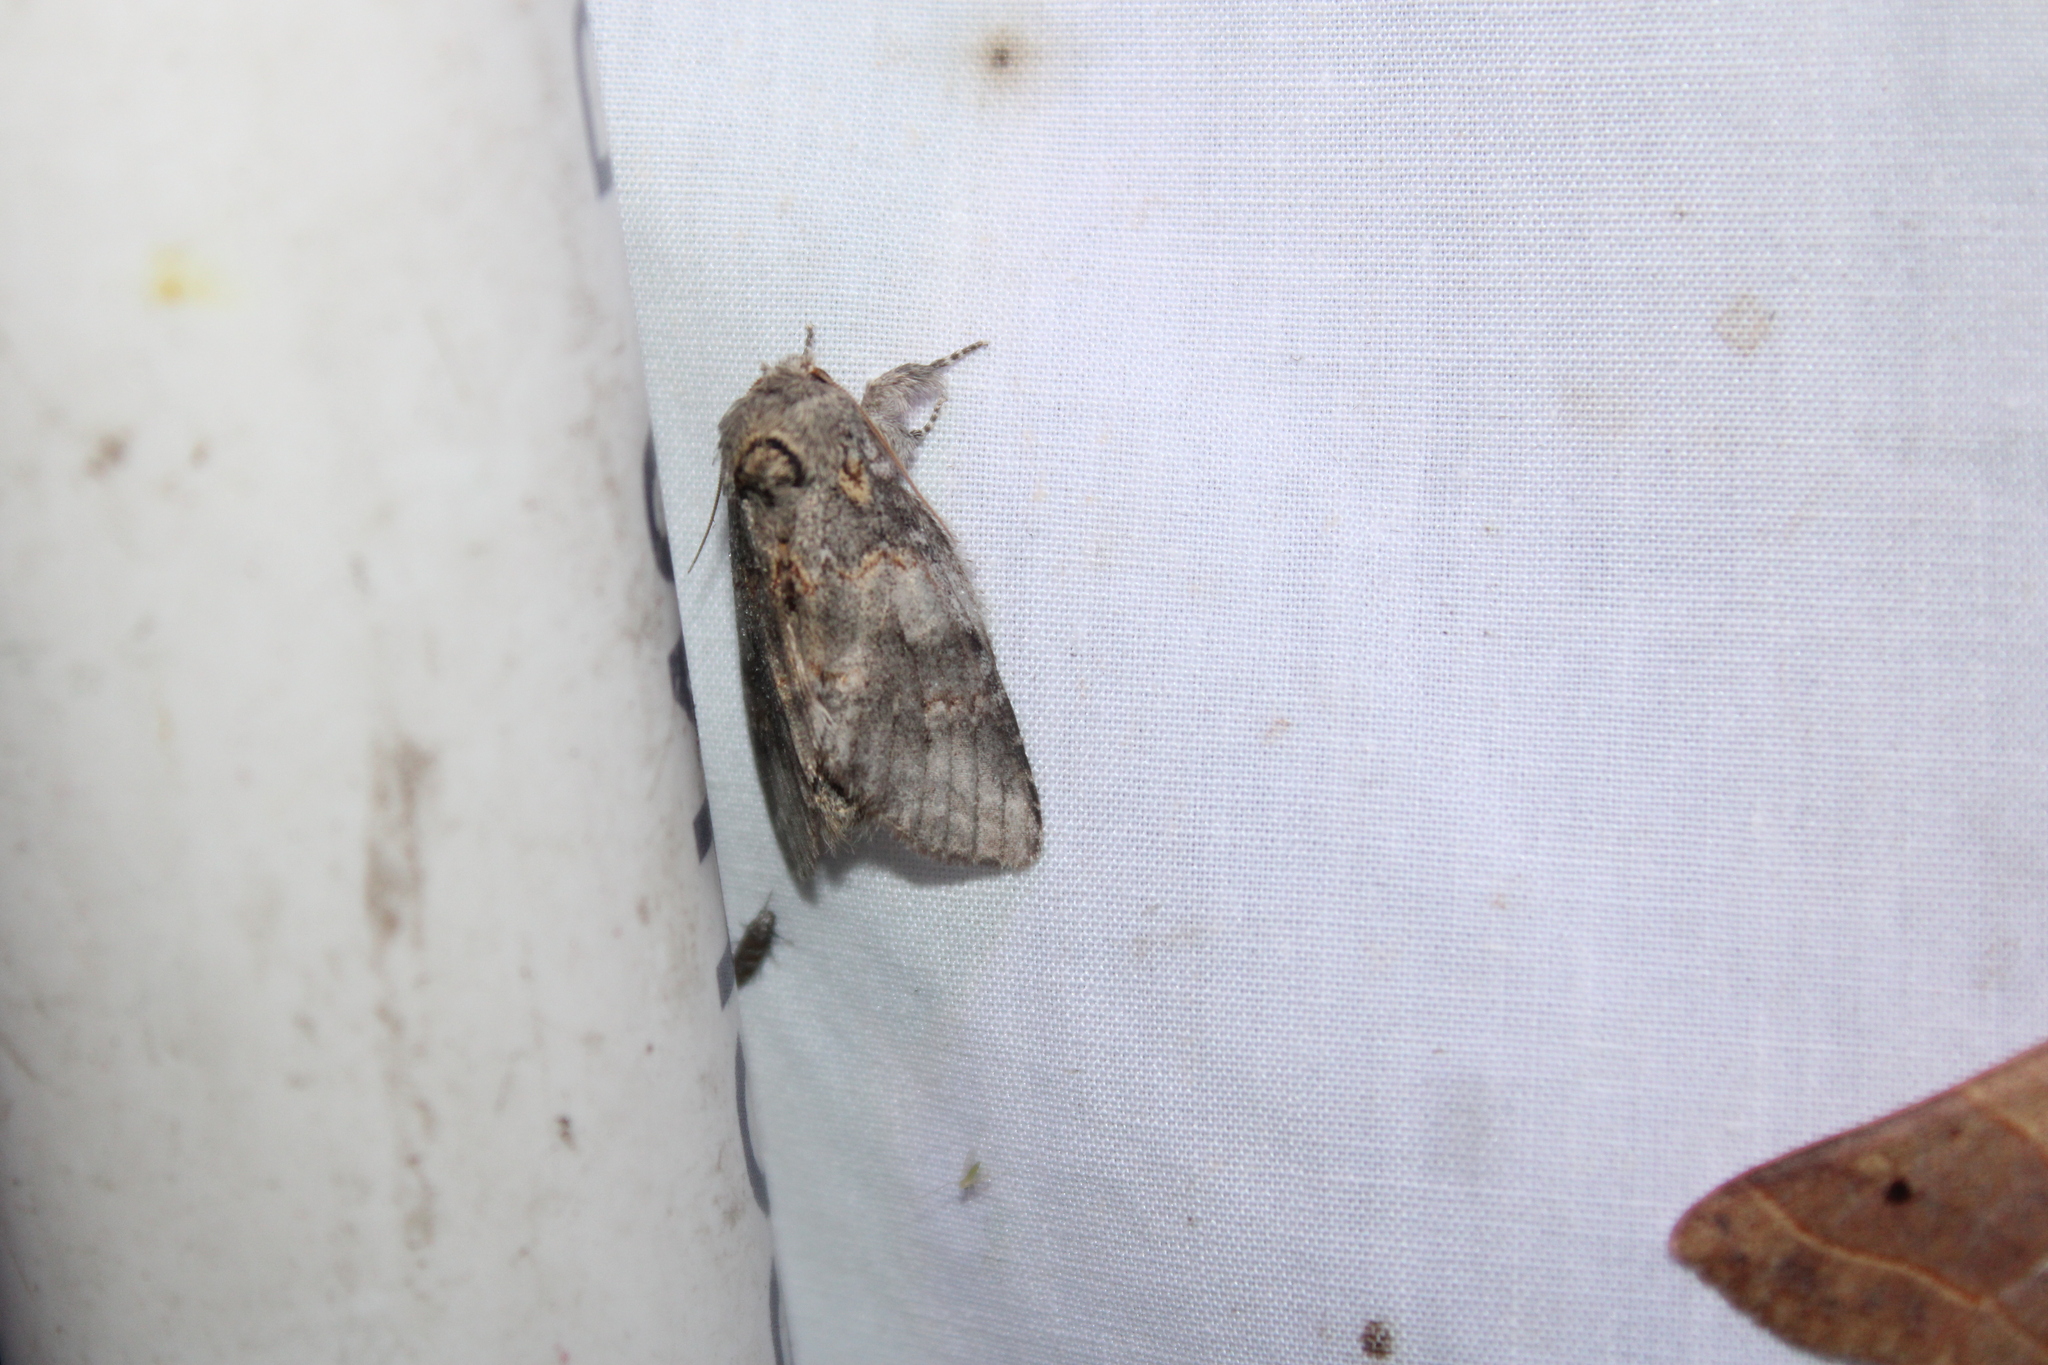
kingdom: Animalia
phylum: Arthropoda
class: Insecta
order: Lepidoptera
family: Notodontidae
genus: Peridea
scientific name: Peridea angulosa
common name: Angulose prominent
